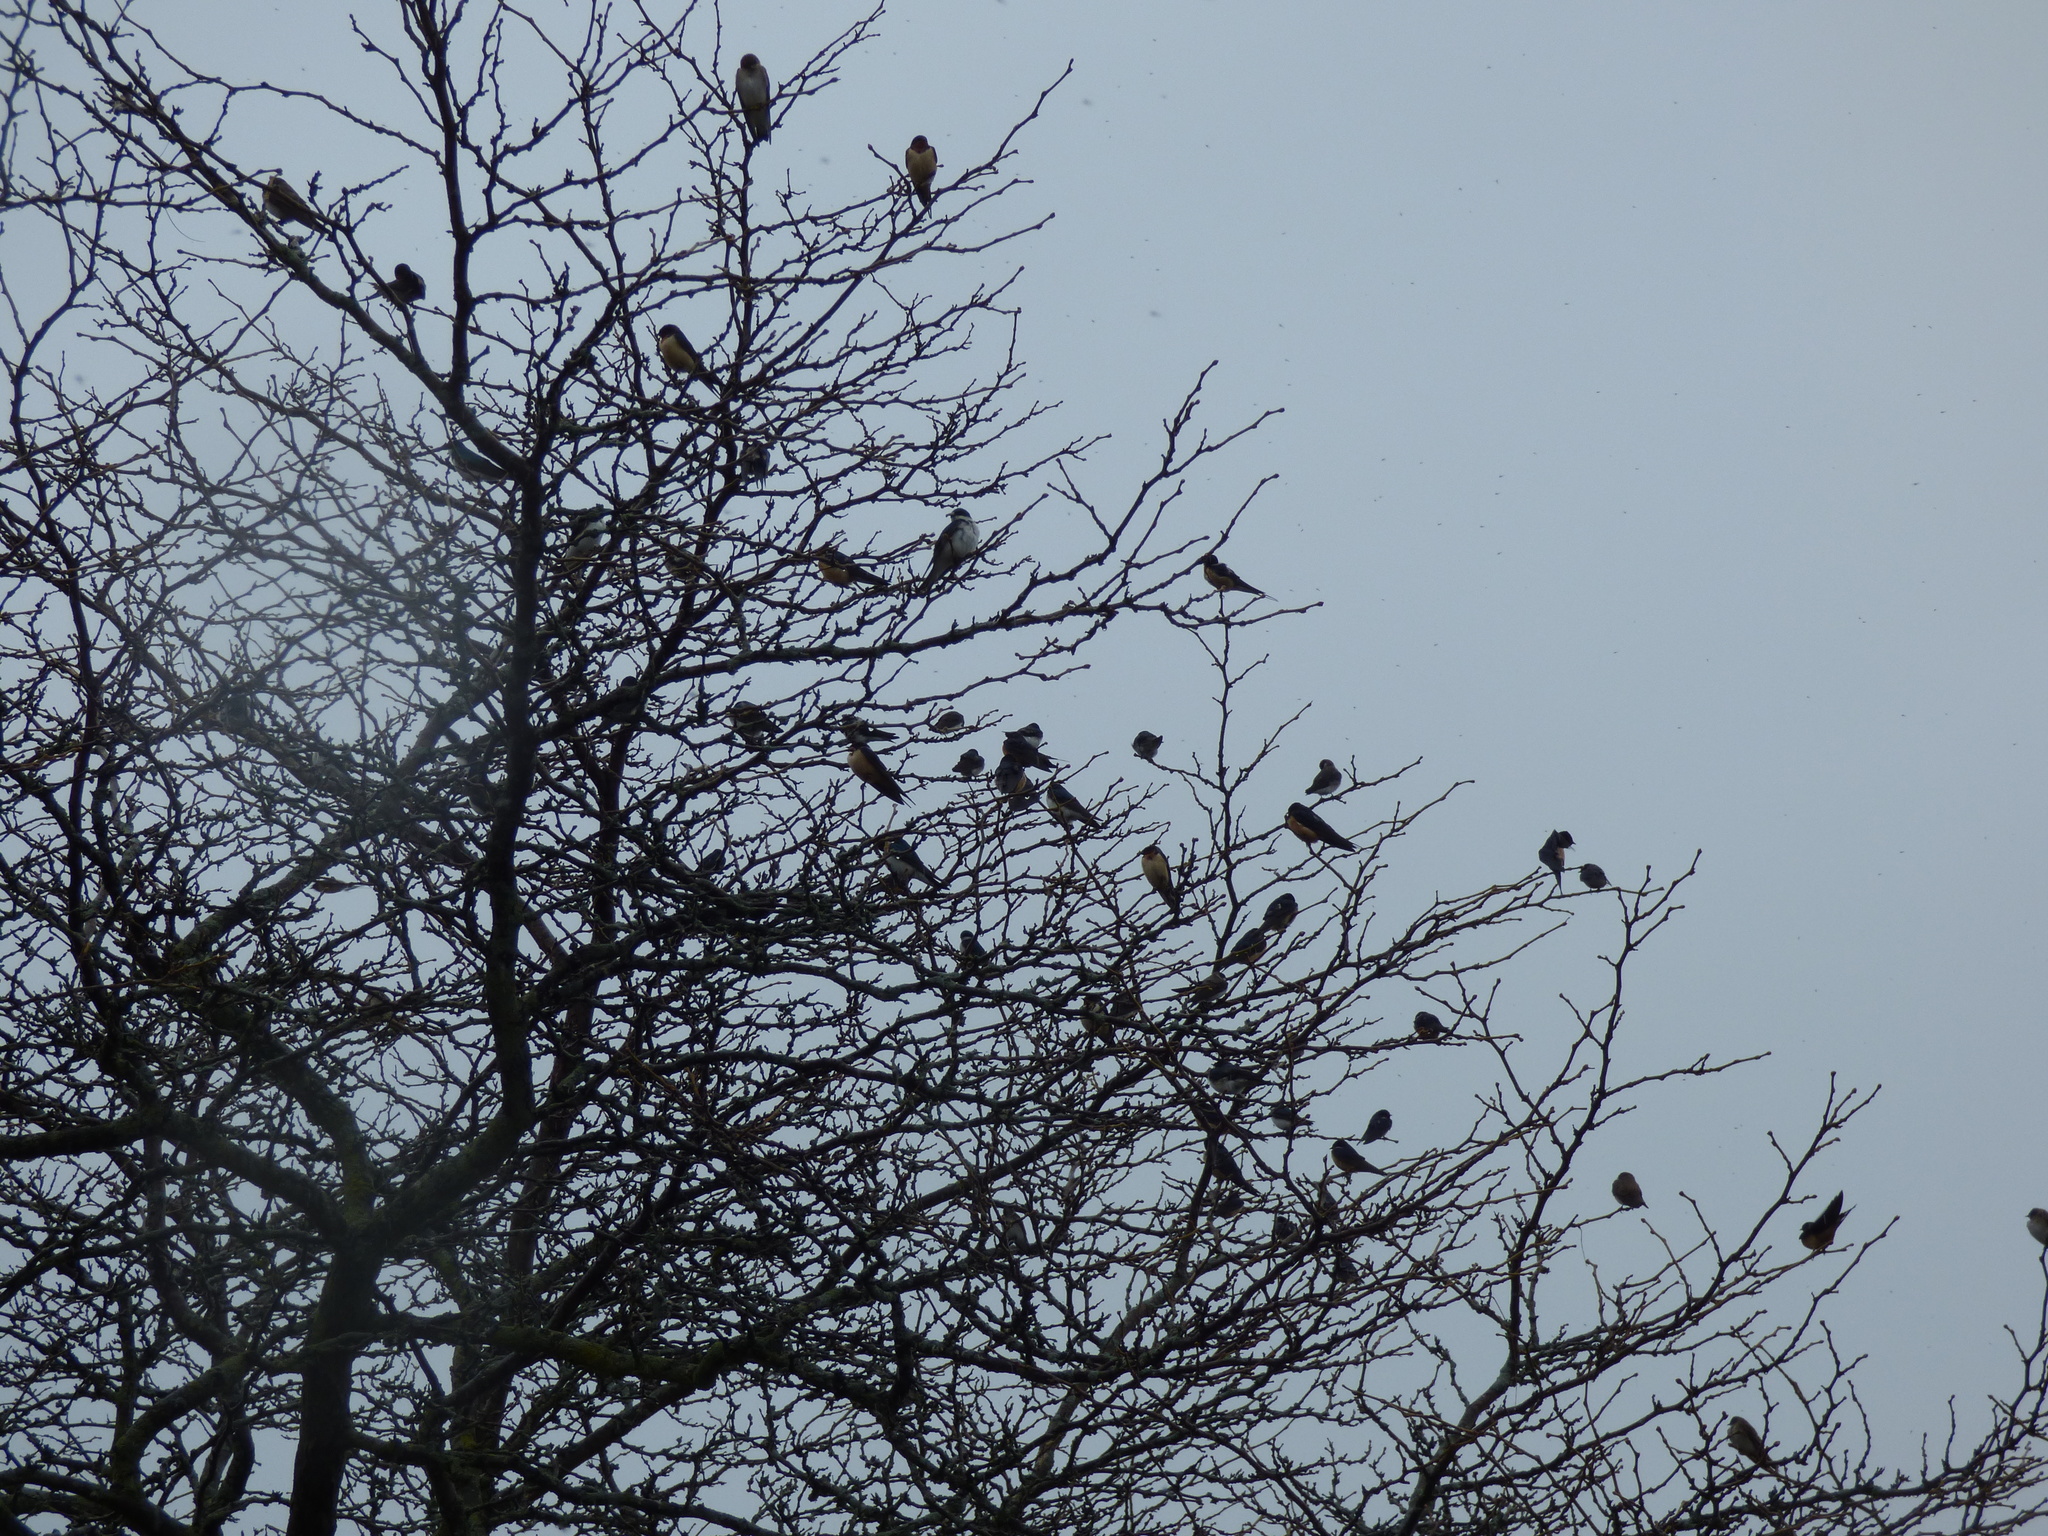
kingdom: Animalia
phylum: Chordata
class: Aves
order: Passeriformes
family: Hirundinidae
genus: Hirundo
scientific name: Hirundo rustica
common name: Barn swallow
